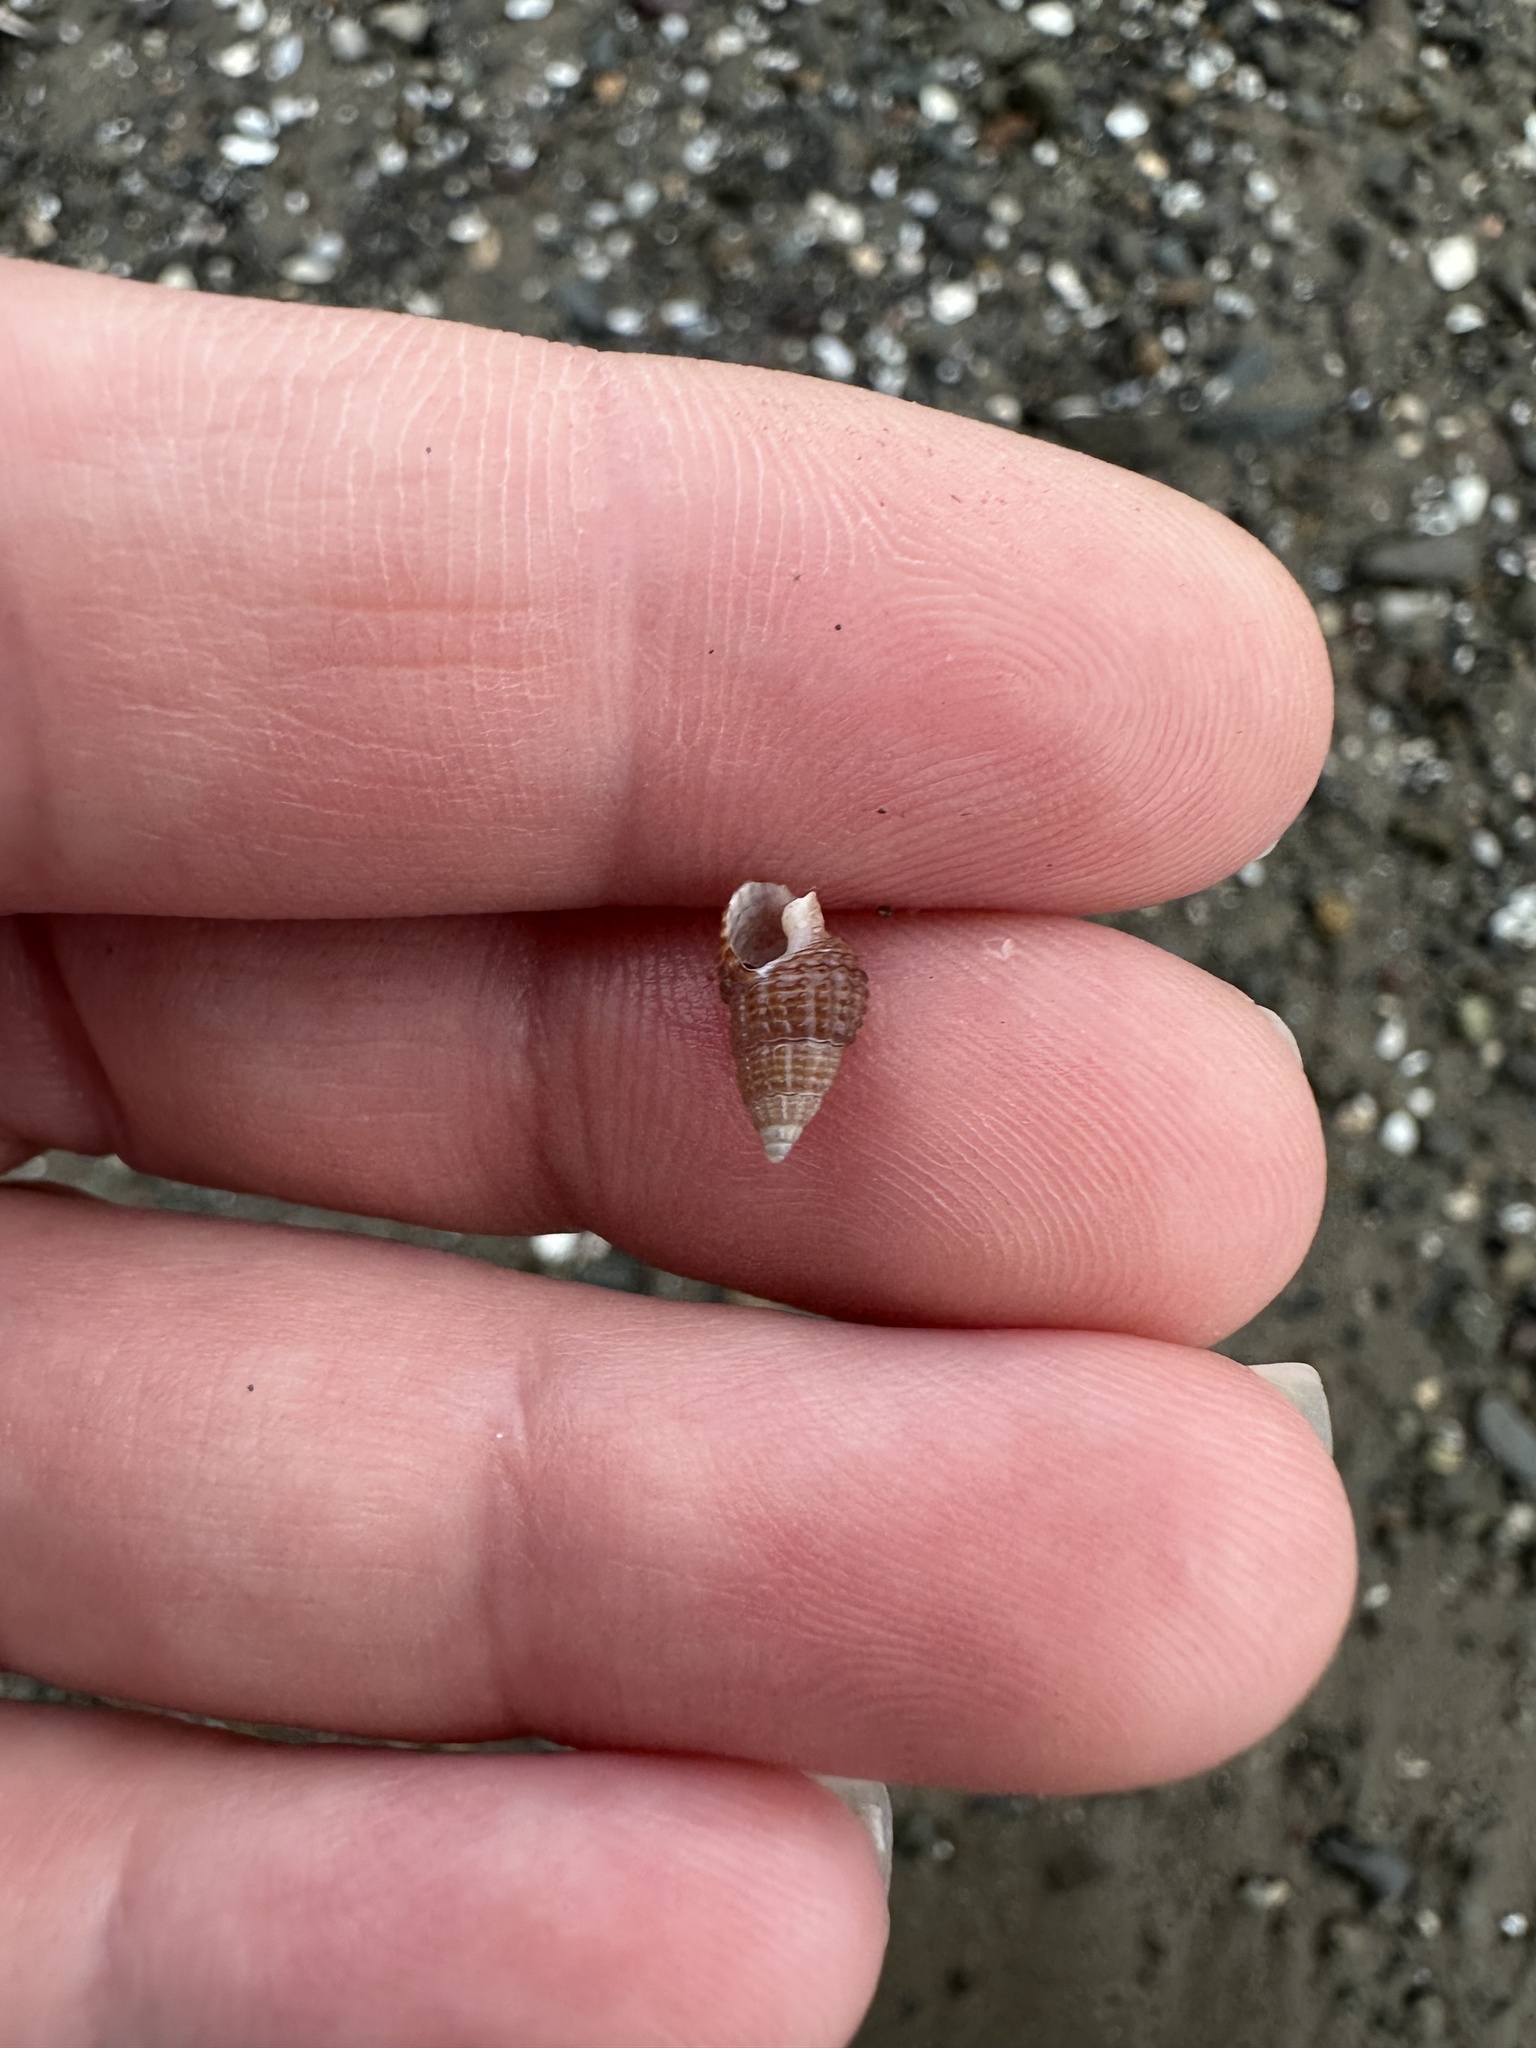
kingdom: Animalia
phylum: Mollusca
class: Gastropoda
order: Neogastropoda
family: Nassariidae
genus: Ilyanassa
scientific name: Ilyanassa trivittata
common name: Three-line mudsnail
